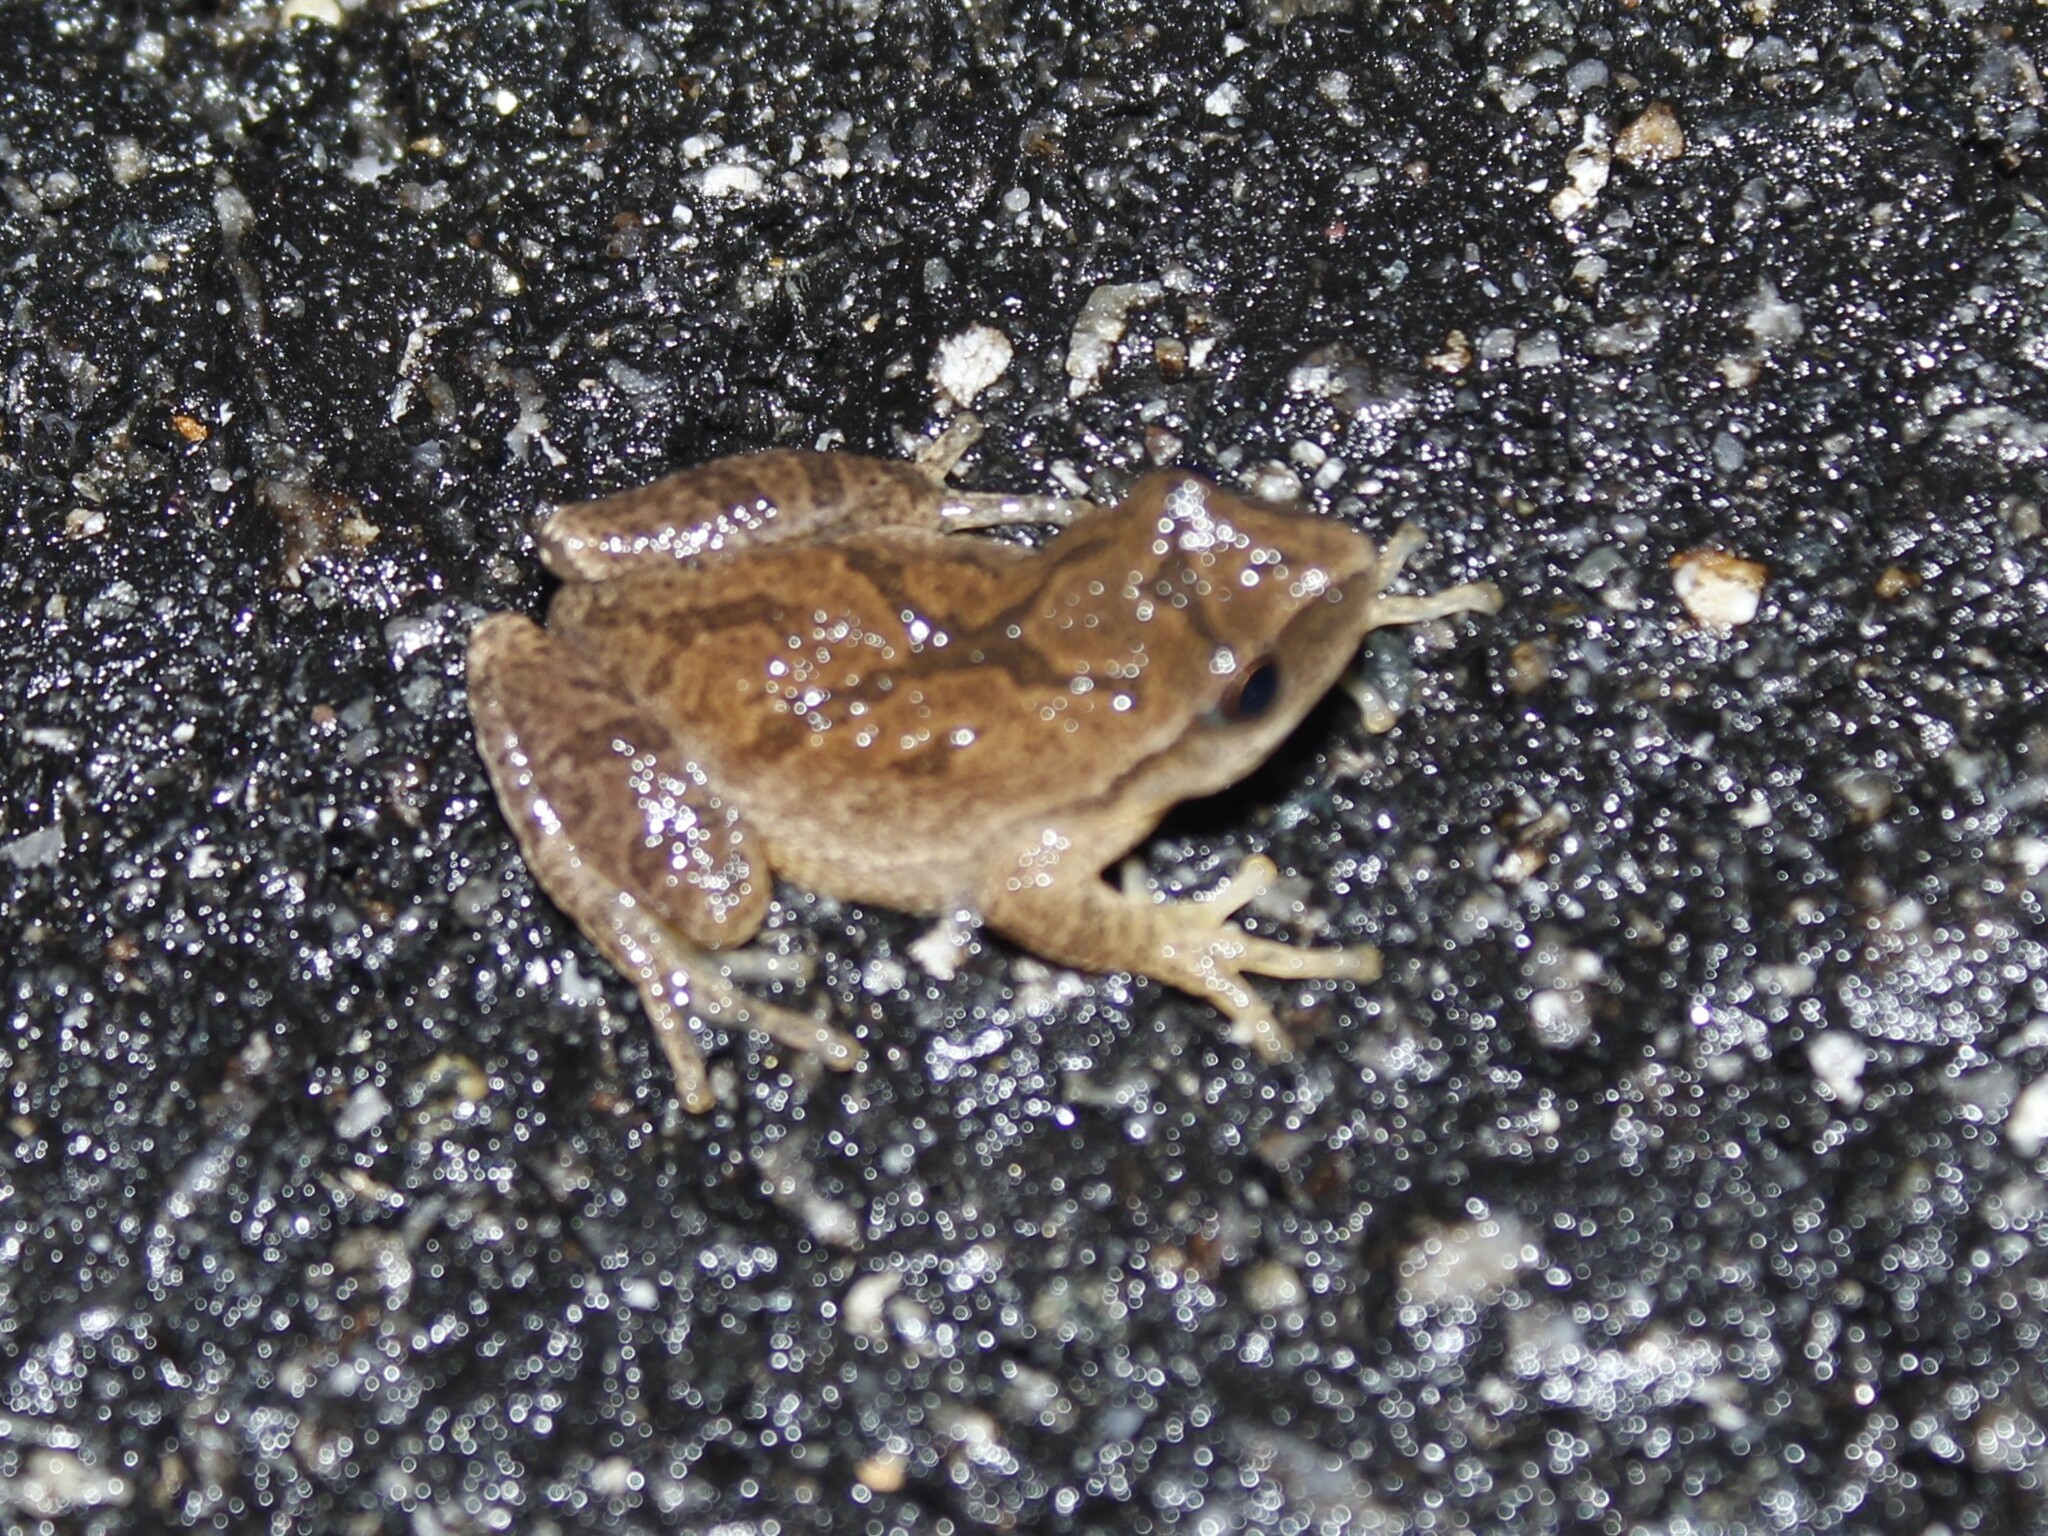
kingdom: Animalia
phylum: Chordata
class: Amphibia
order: Anura
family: Hylidae
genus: Pseudacris
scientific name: Pseudacris crucifer
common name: Spring peeper
